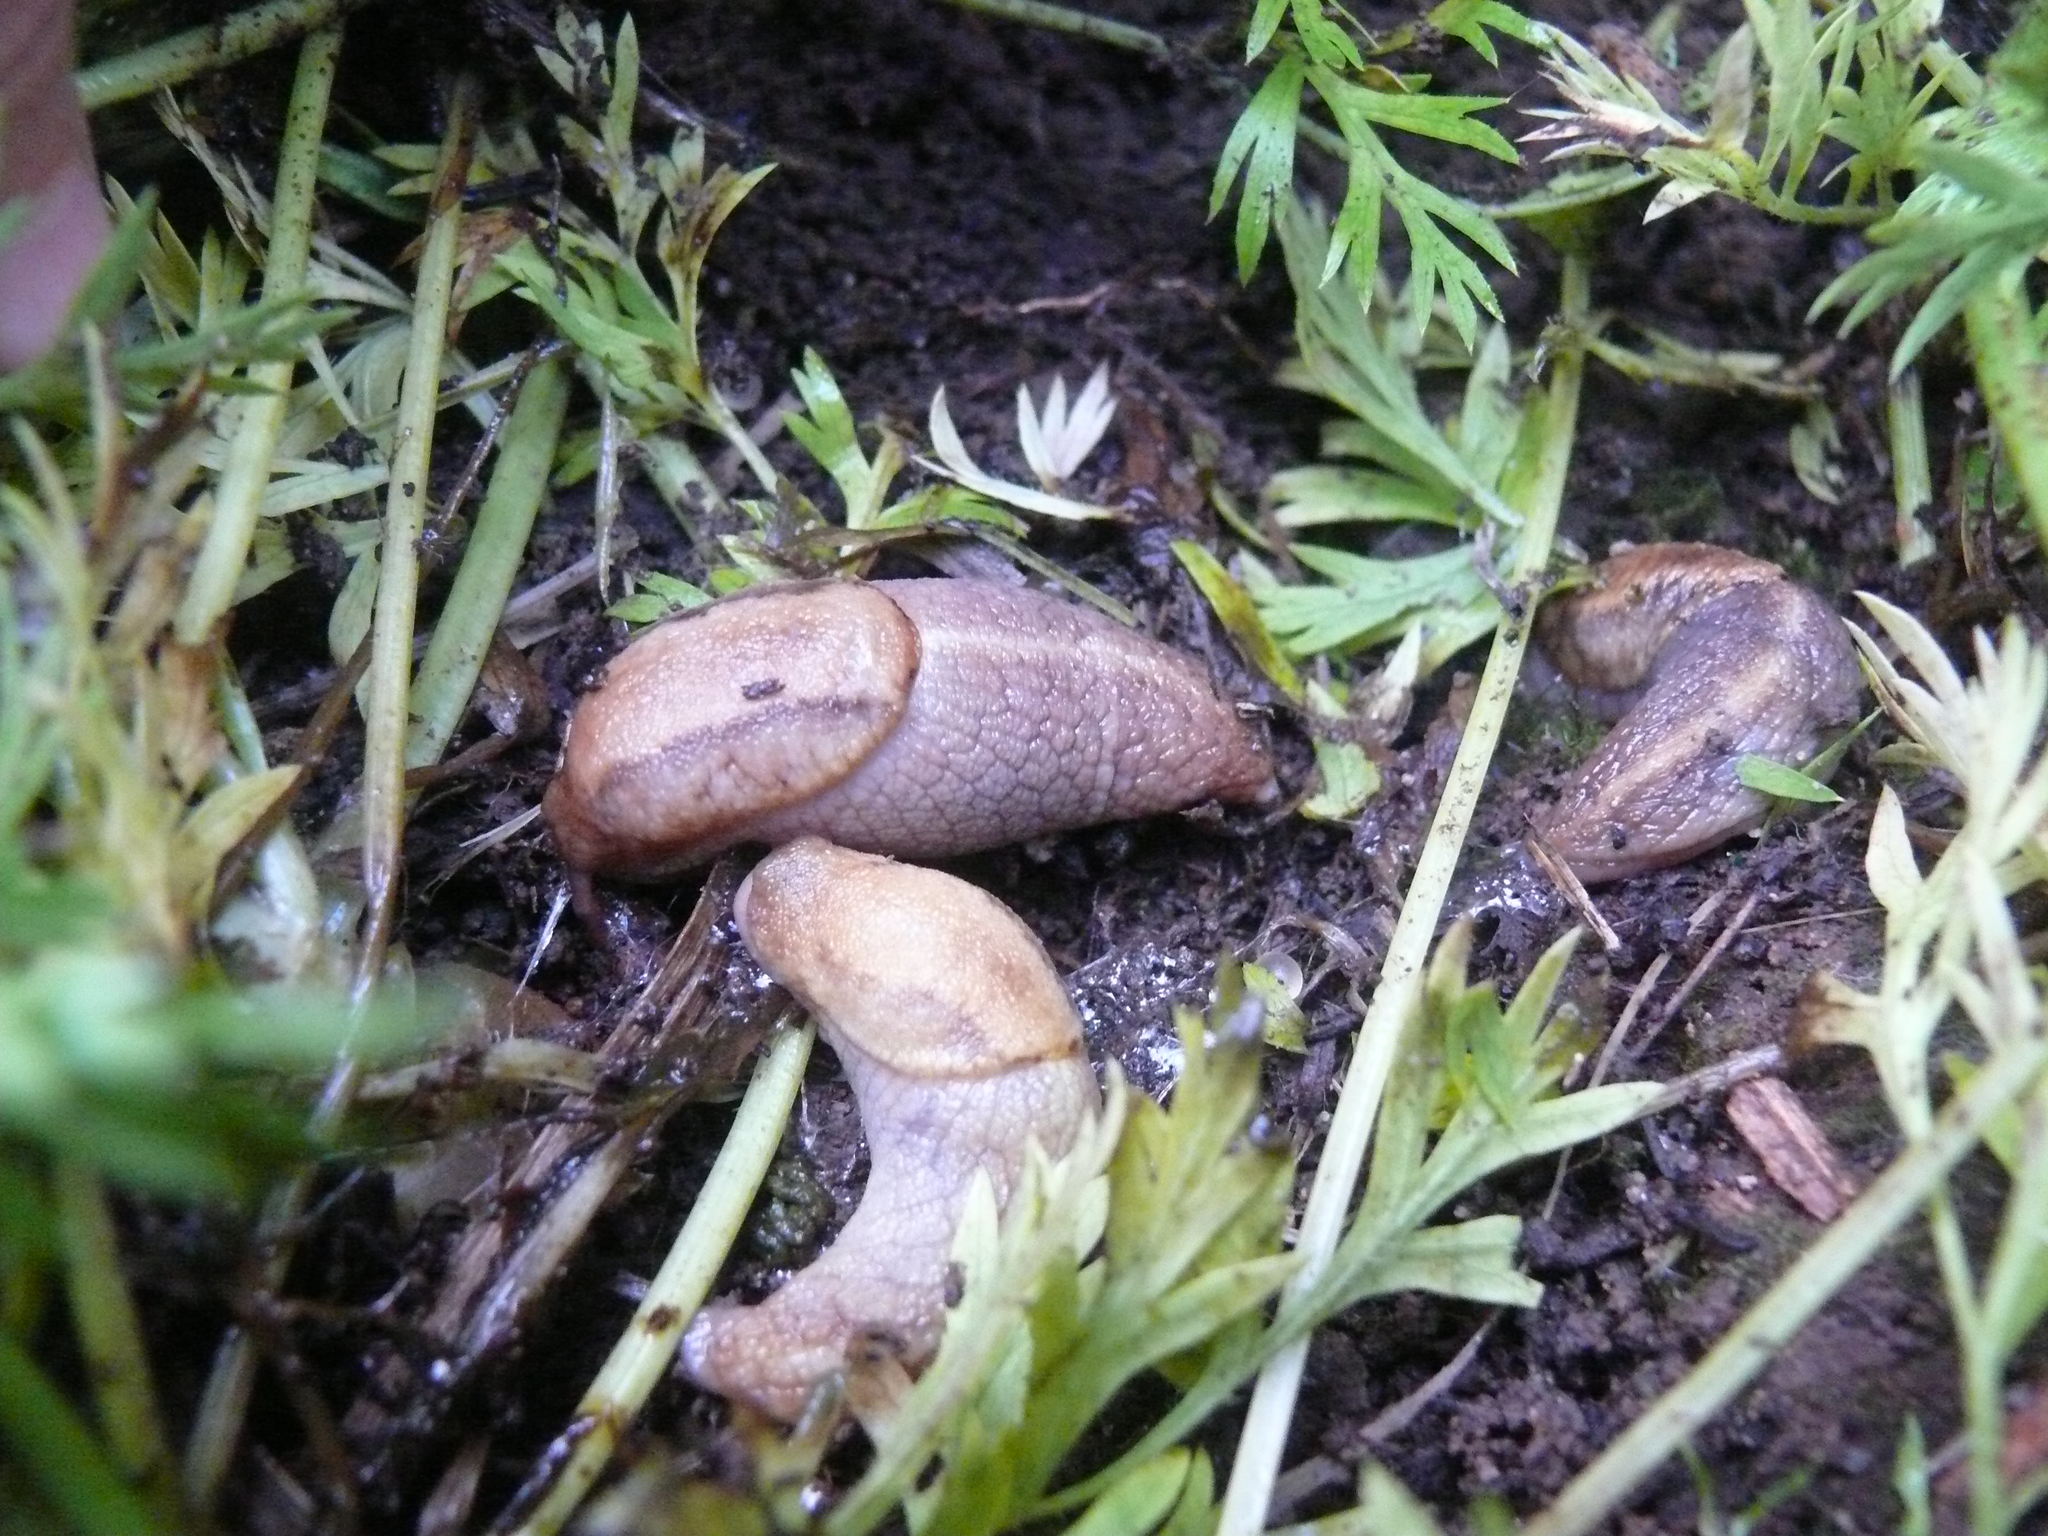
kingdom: Animalia
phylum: Mollusca
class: Gastropoda
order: Stylommatophora
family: Ariolimacidae
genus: Prophysaon
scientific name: Prophysaon andersonii
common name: Reticulate taildropper
